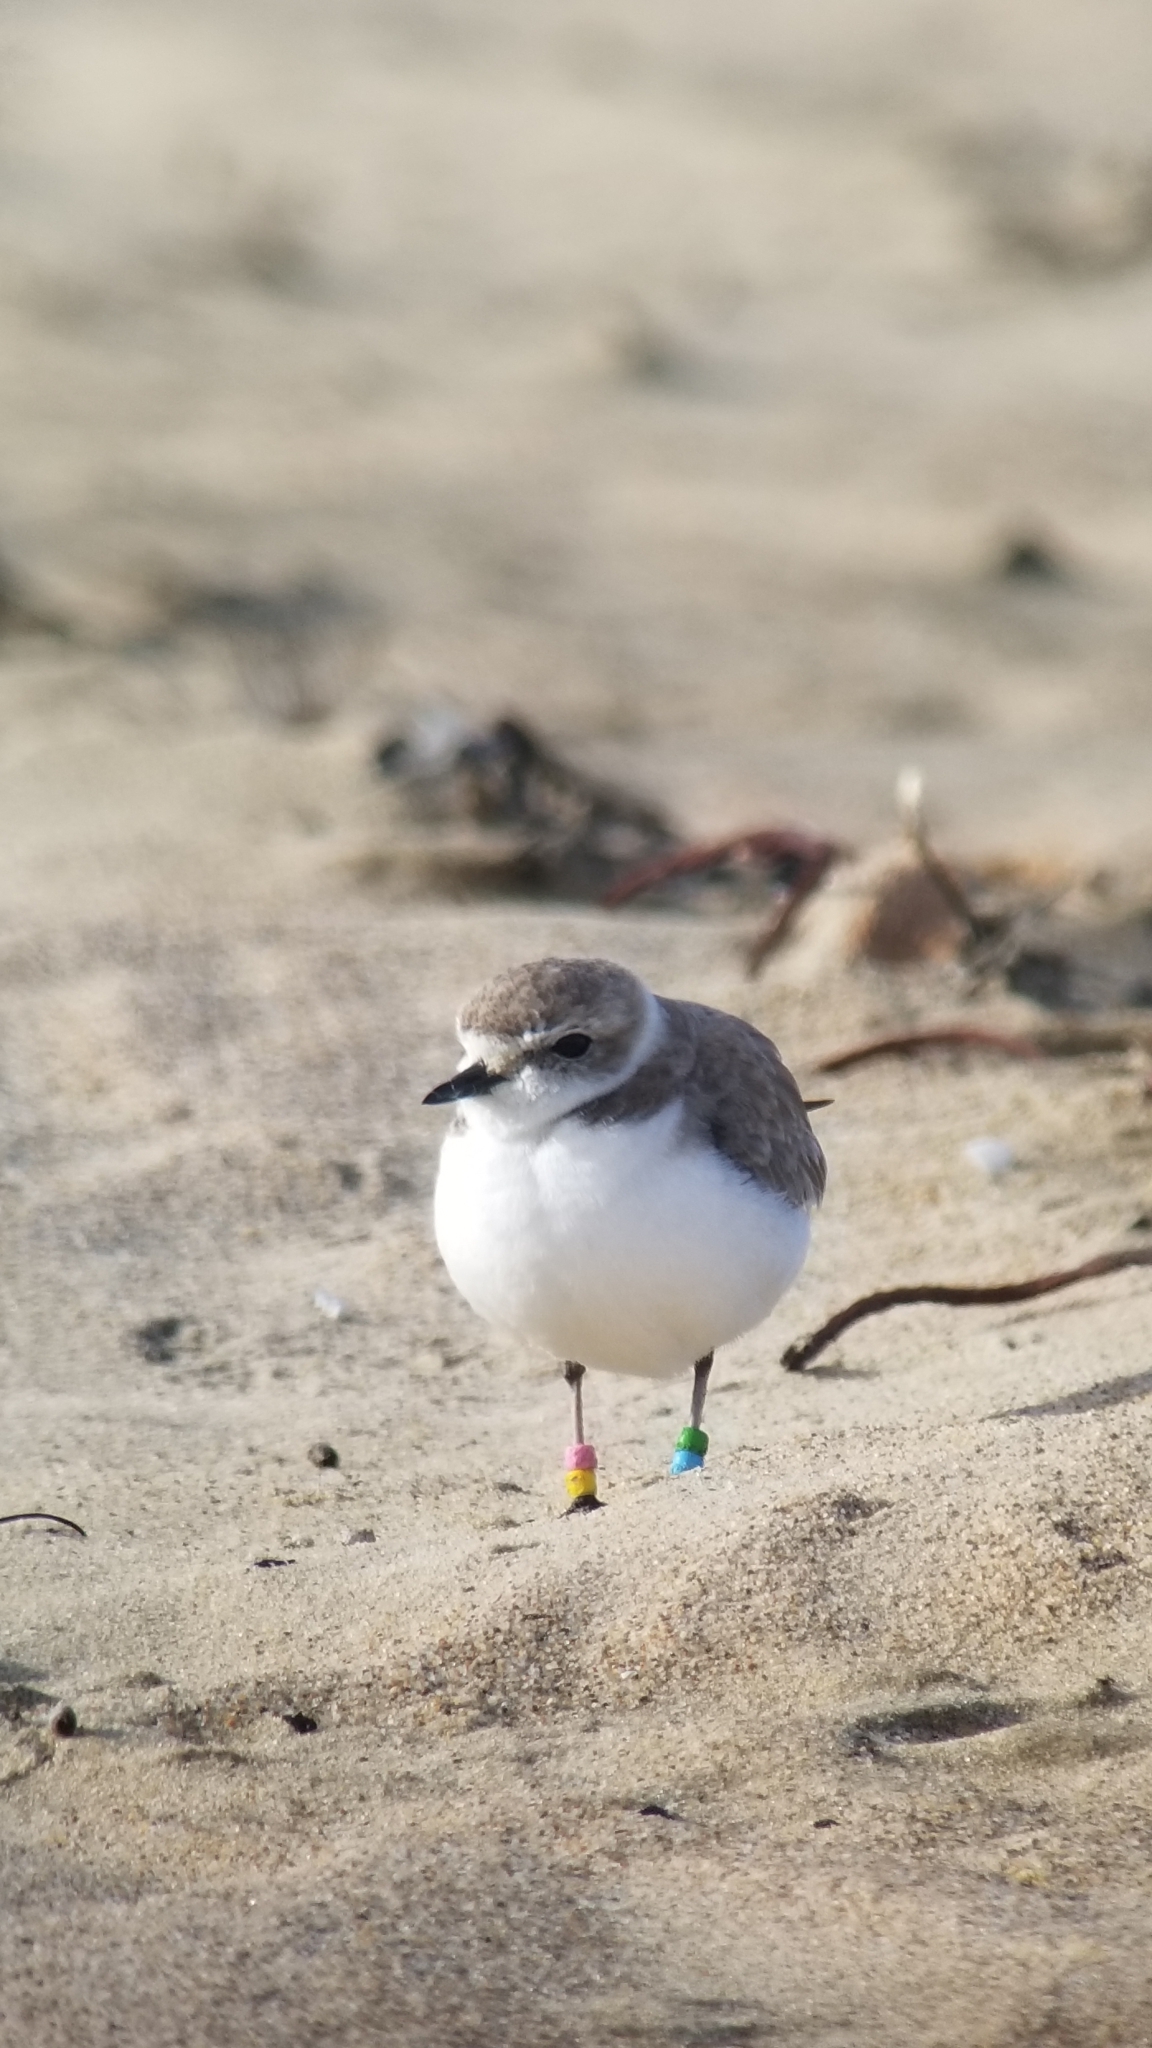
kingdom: Animalia
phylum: Chordata
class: Aves
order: Charadriiformes
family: Charadriidae
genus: Anarhynchus
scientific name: Anarhynchus
